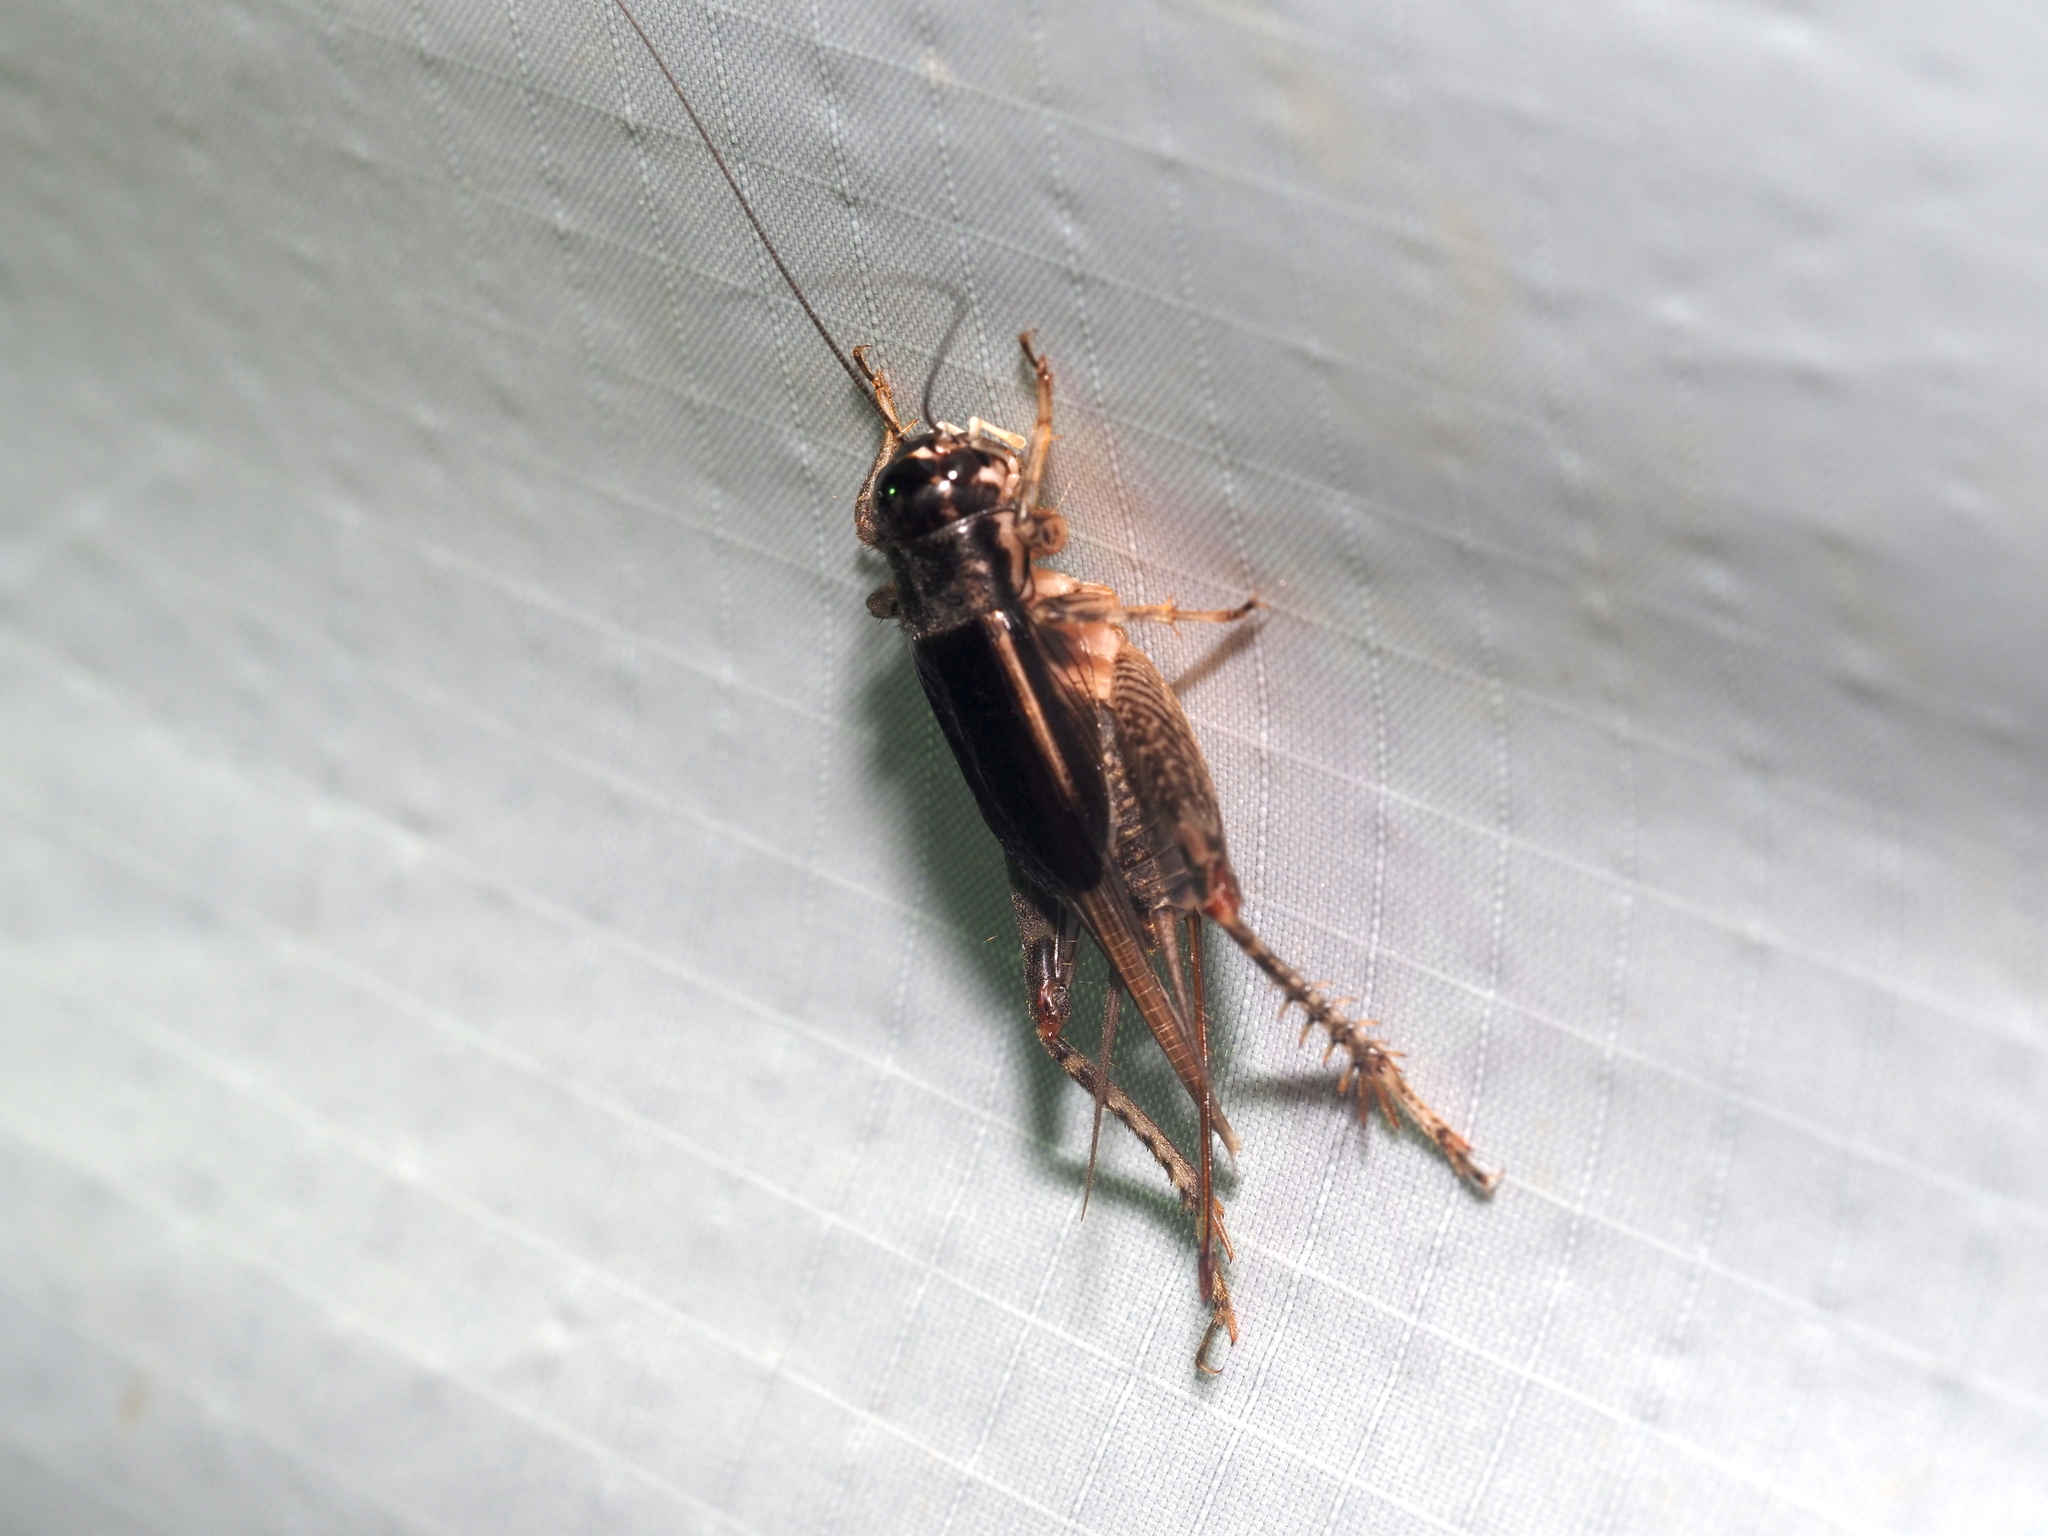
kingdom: Animalia
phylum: Arthropoda
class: Insecta
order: Orthoptera
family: Gryllidae
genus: Velarifictorus
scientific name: Velarifictorus micado
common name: Japanese burrowing cricket
